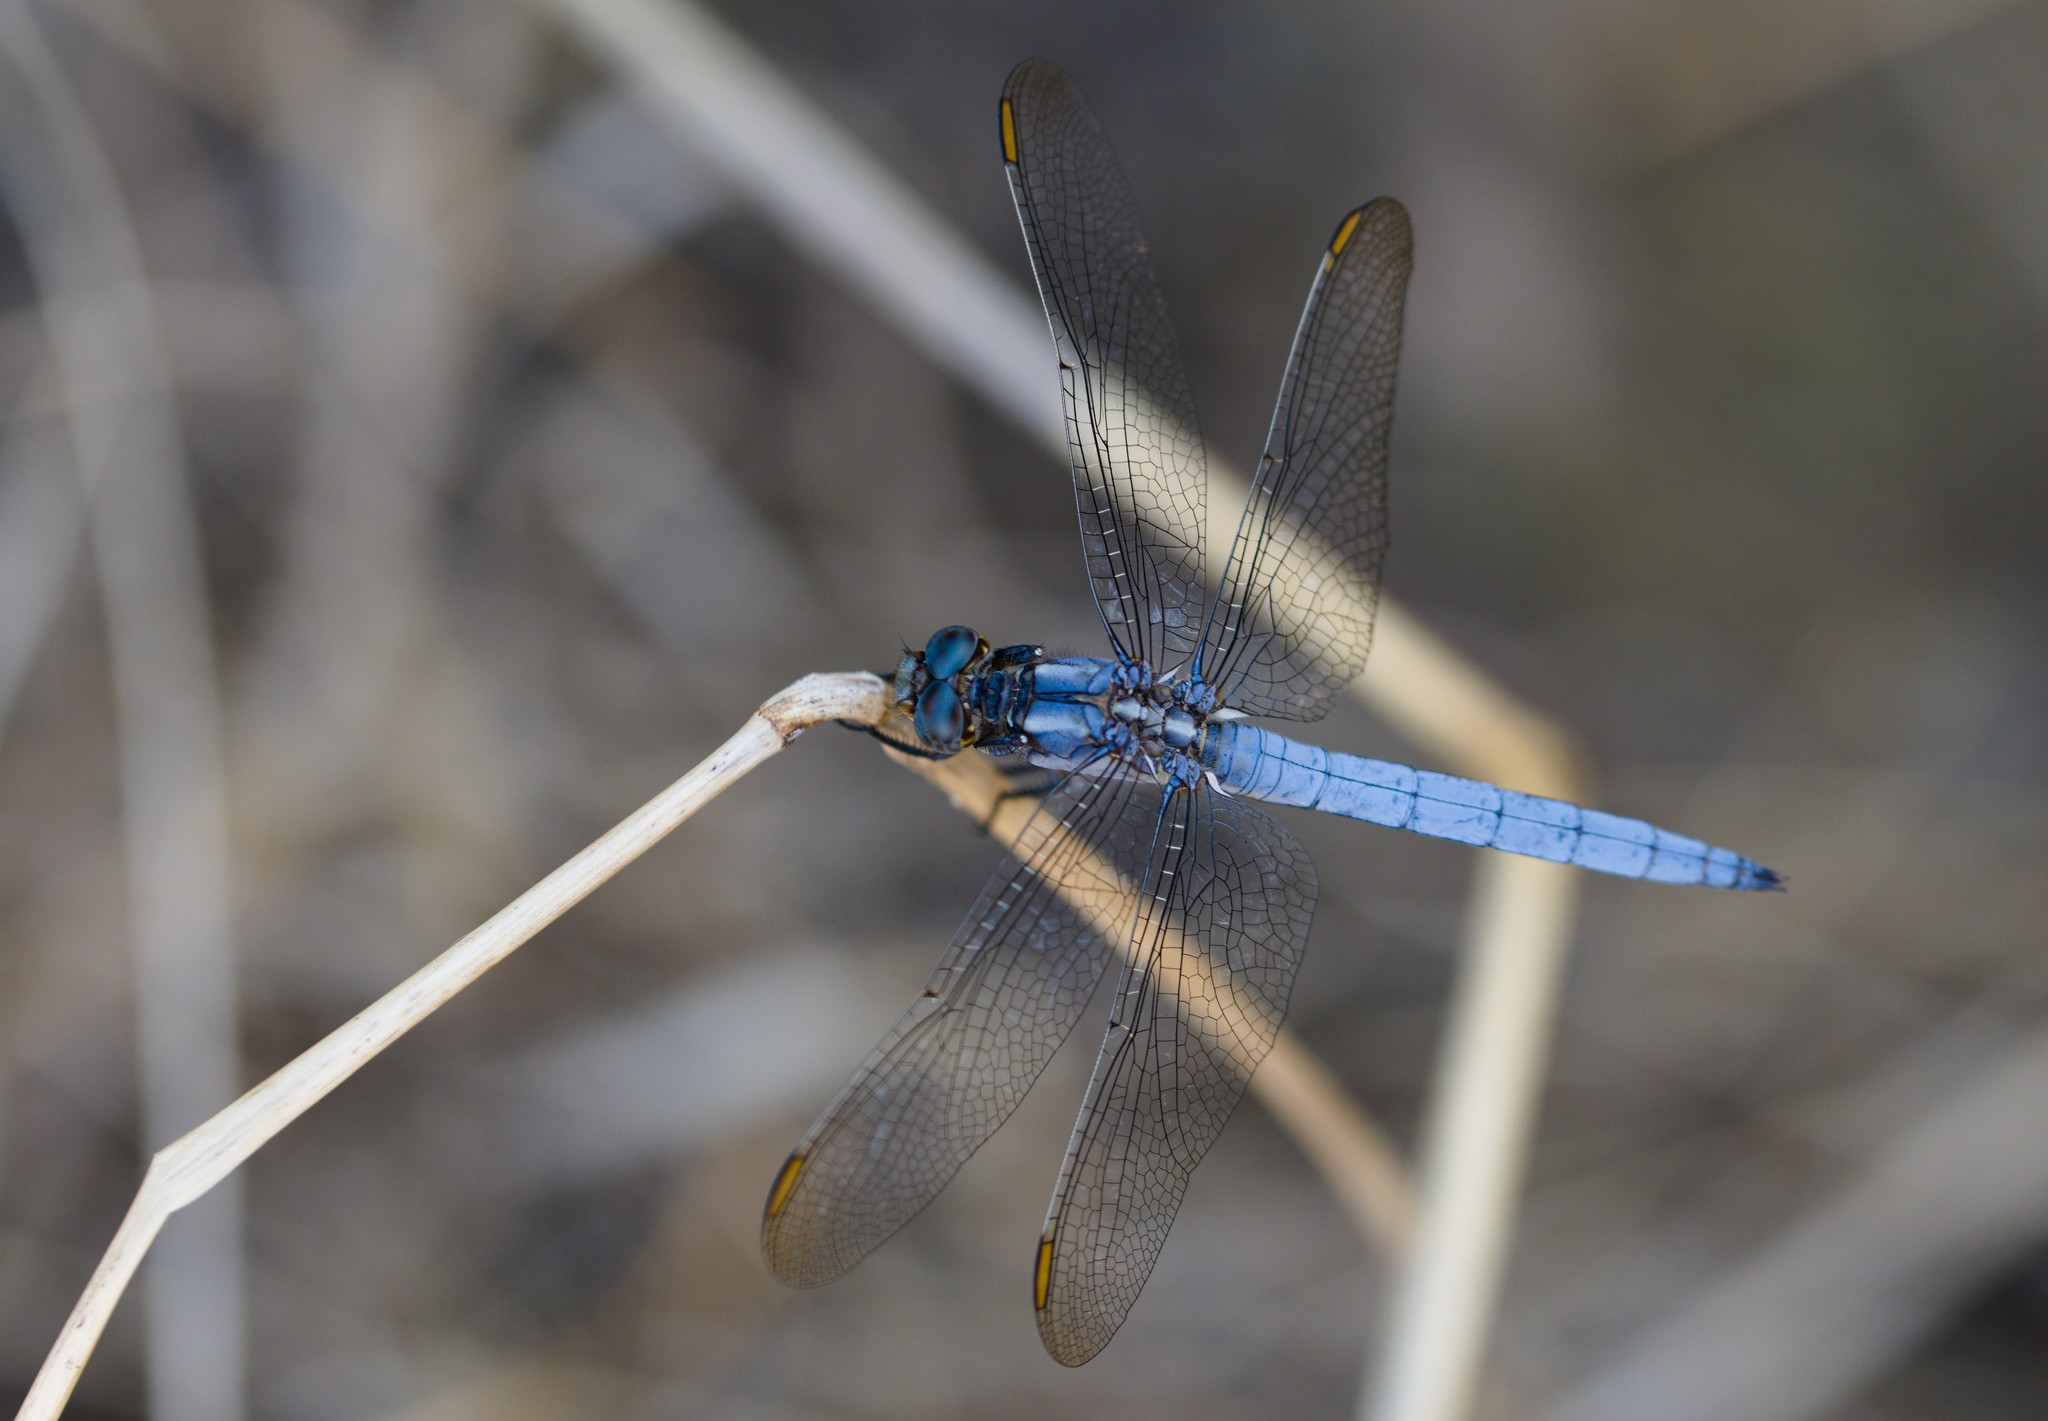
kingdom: Animalia
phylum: Arthropoda
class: Insecta
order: Odonata
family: Libellulidae
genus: Orthetrum
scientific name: Orthetrum coerulescens
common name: Keeled skimmer
